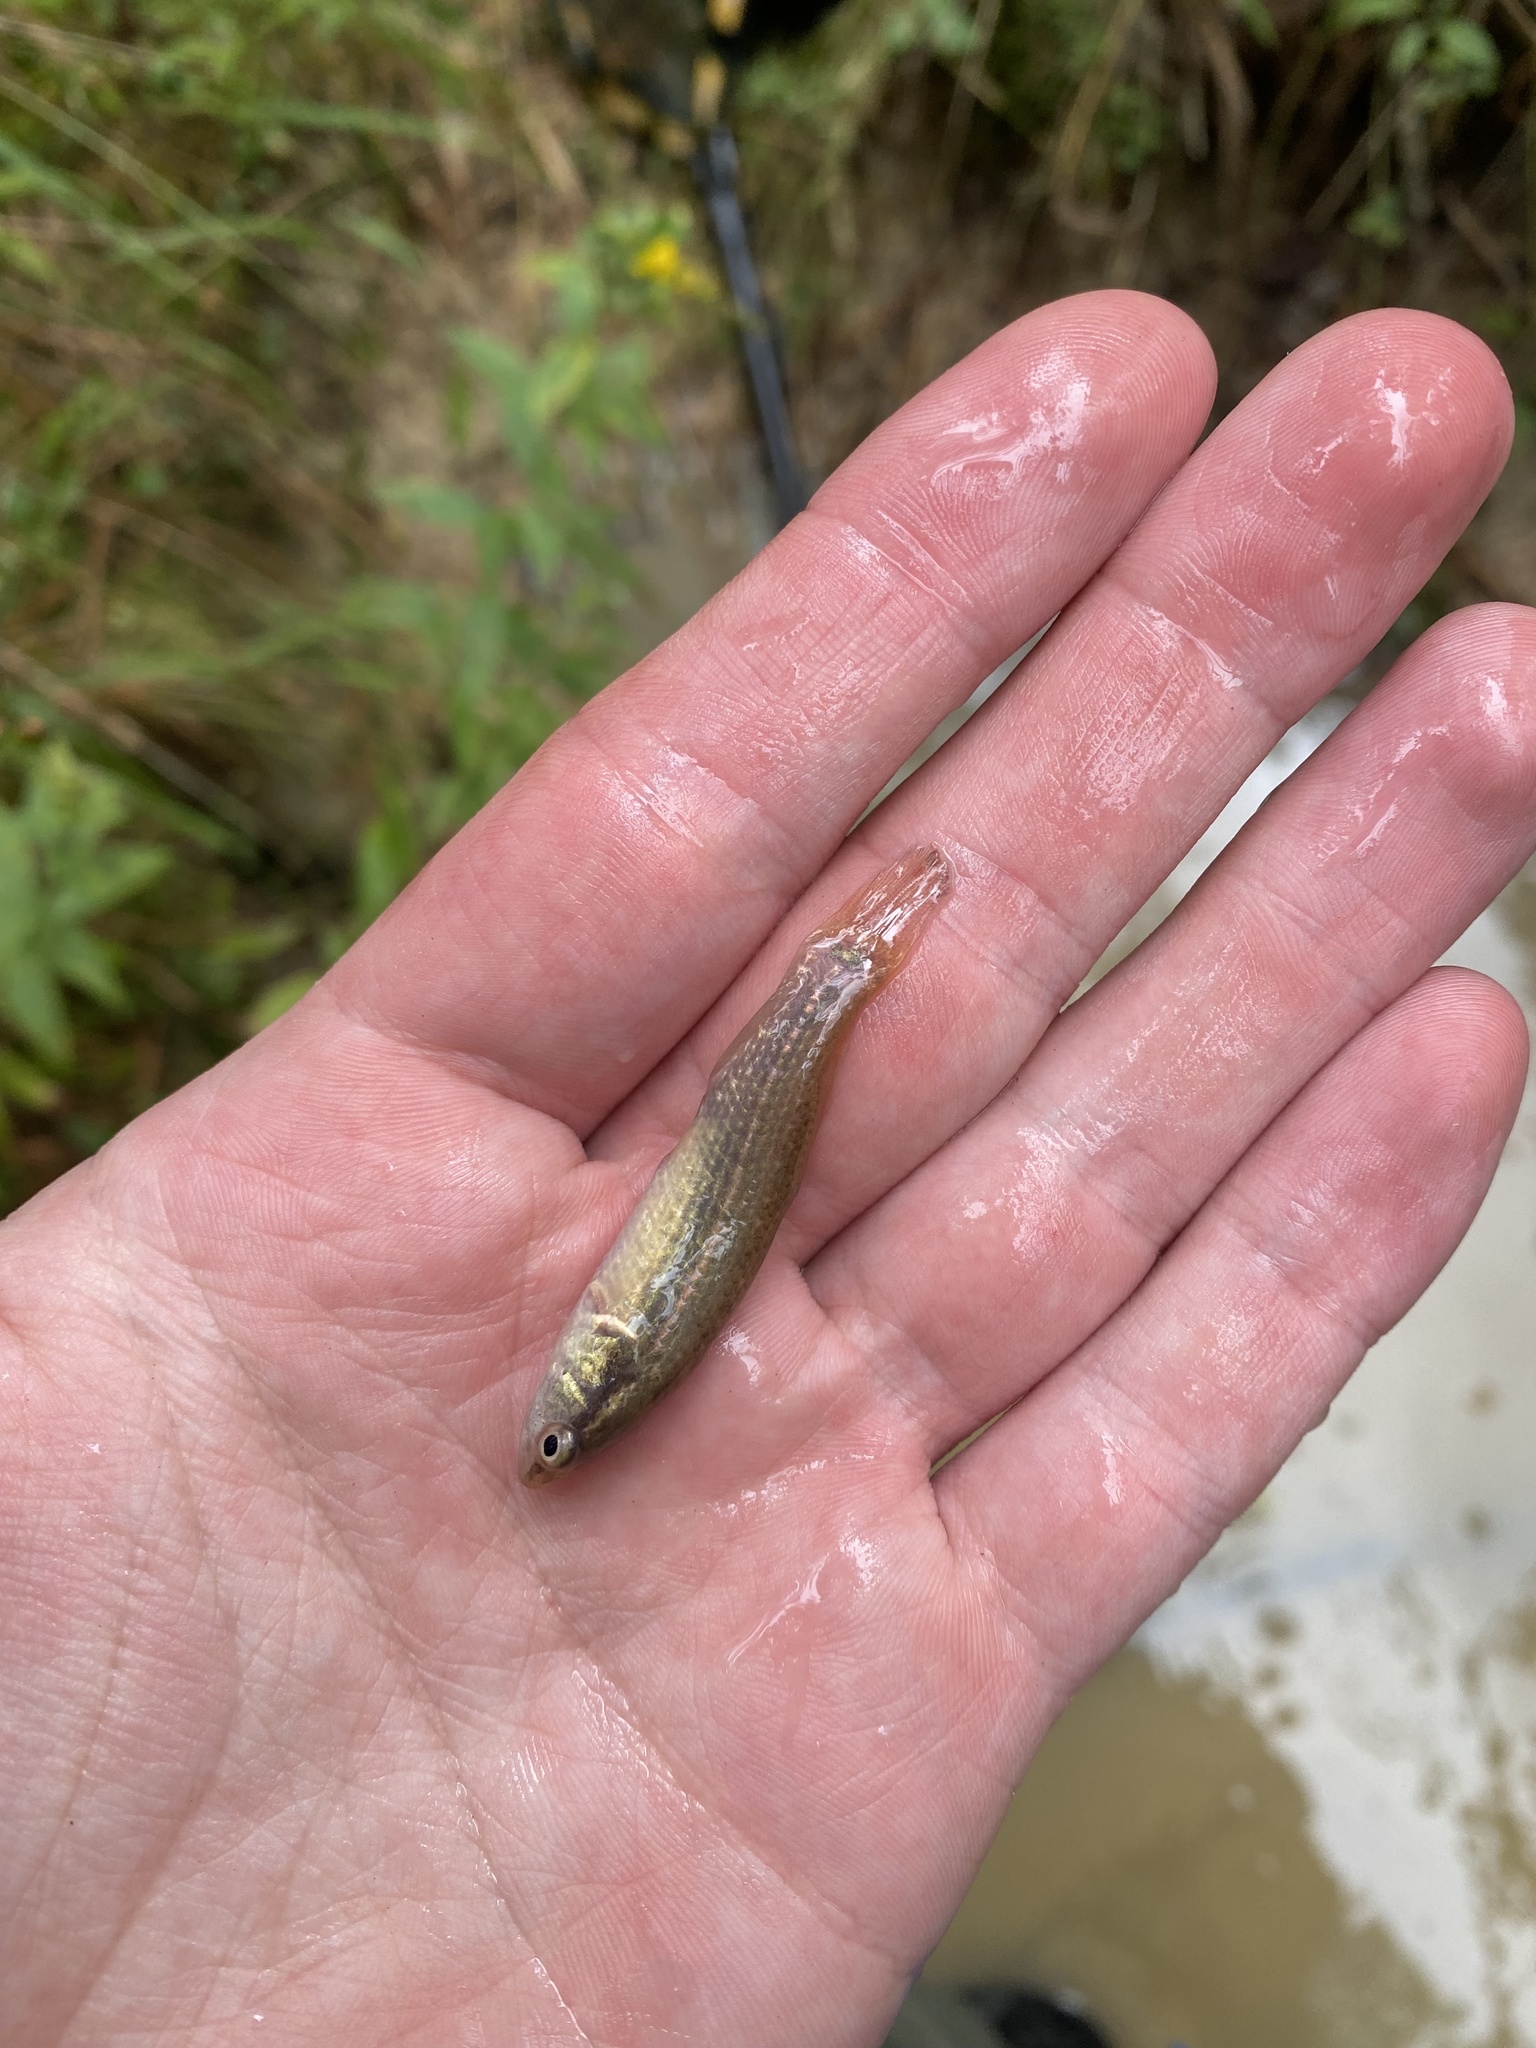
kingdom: Animalia
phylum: Chordata
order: Esociformes
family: Umbridae
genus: Umbra
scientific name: Umbra pygmaea
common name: Eastern mudminnow
